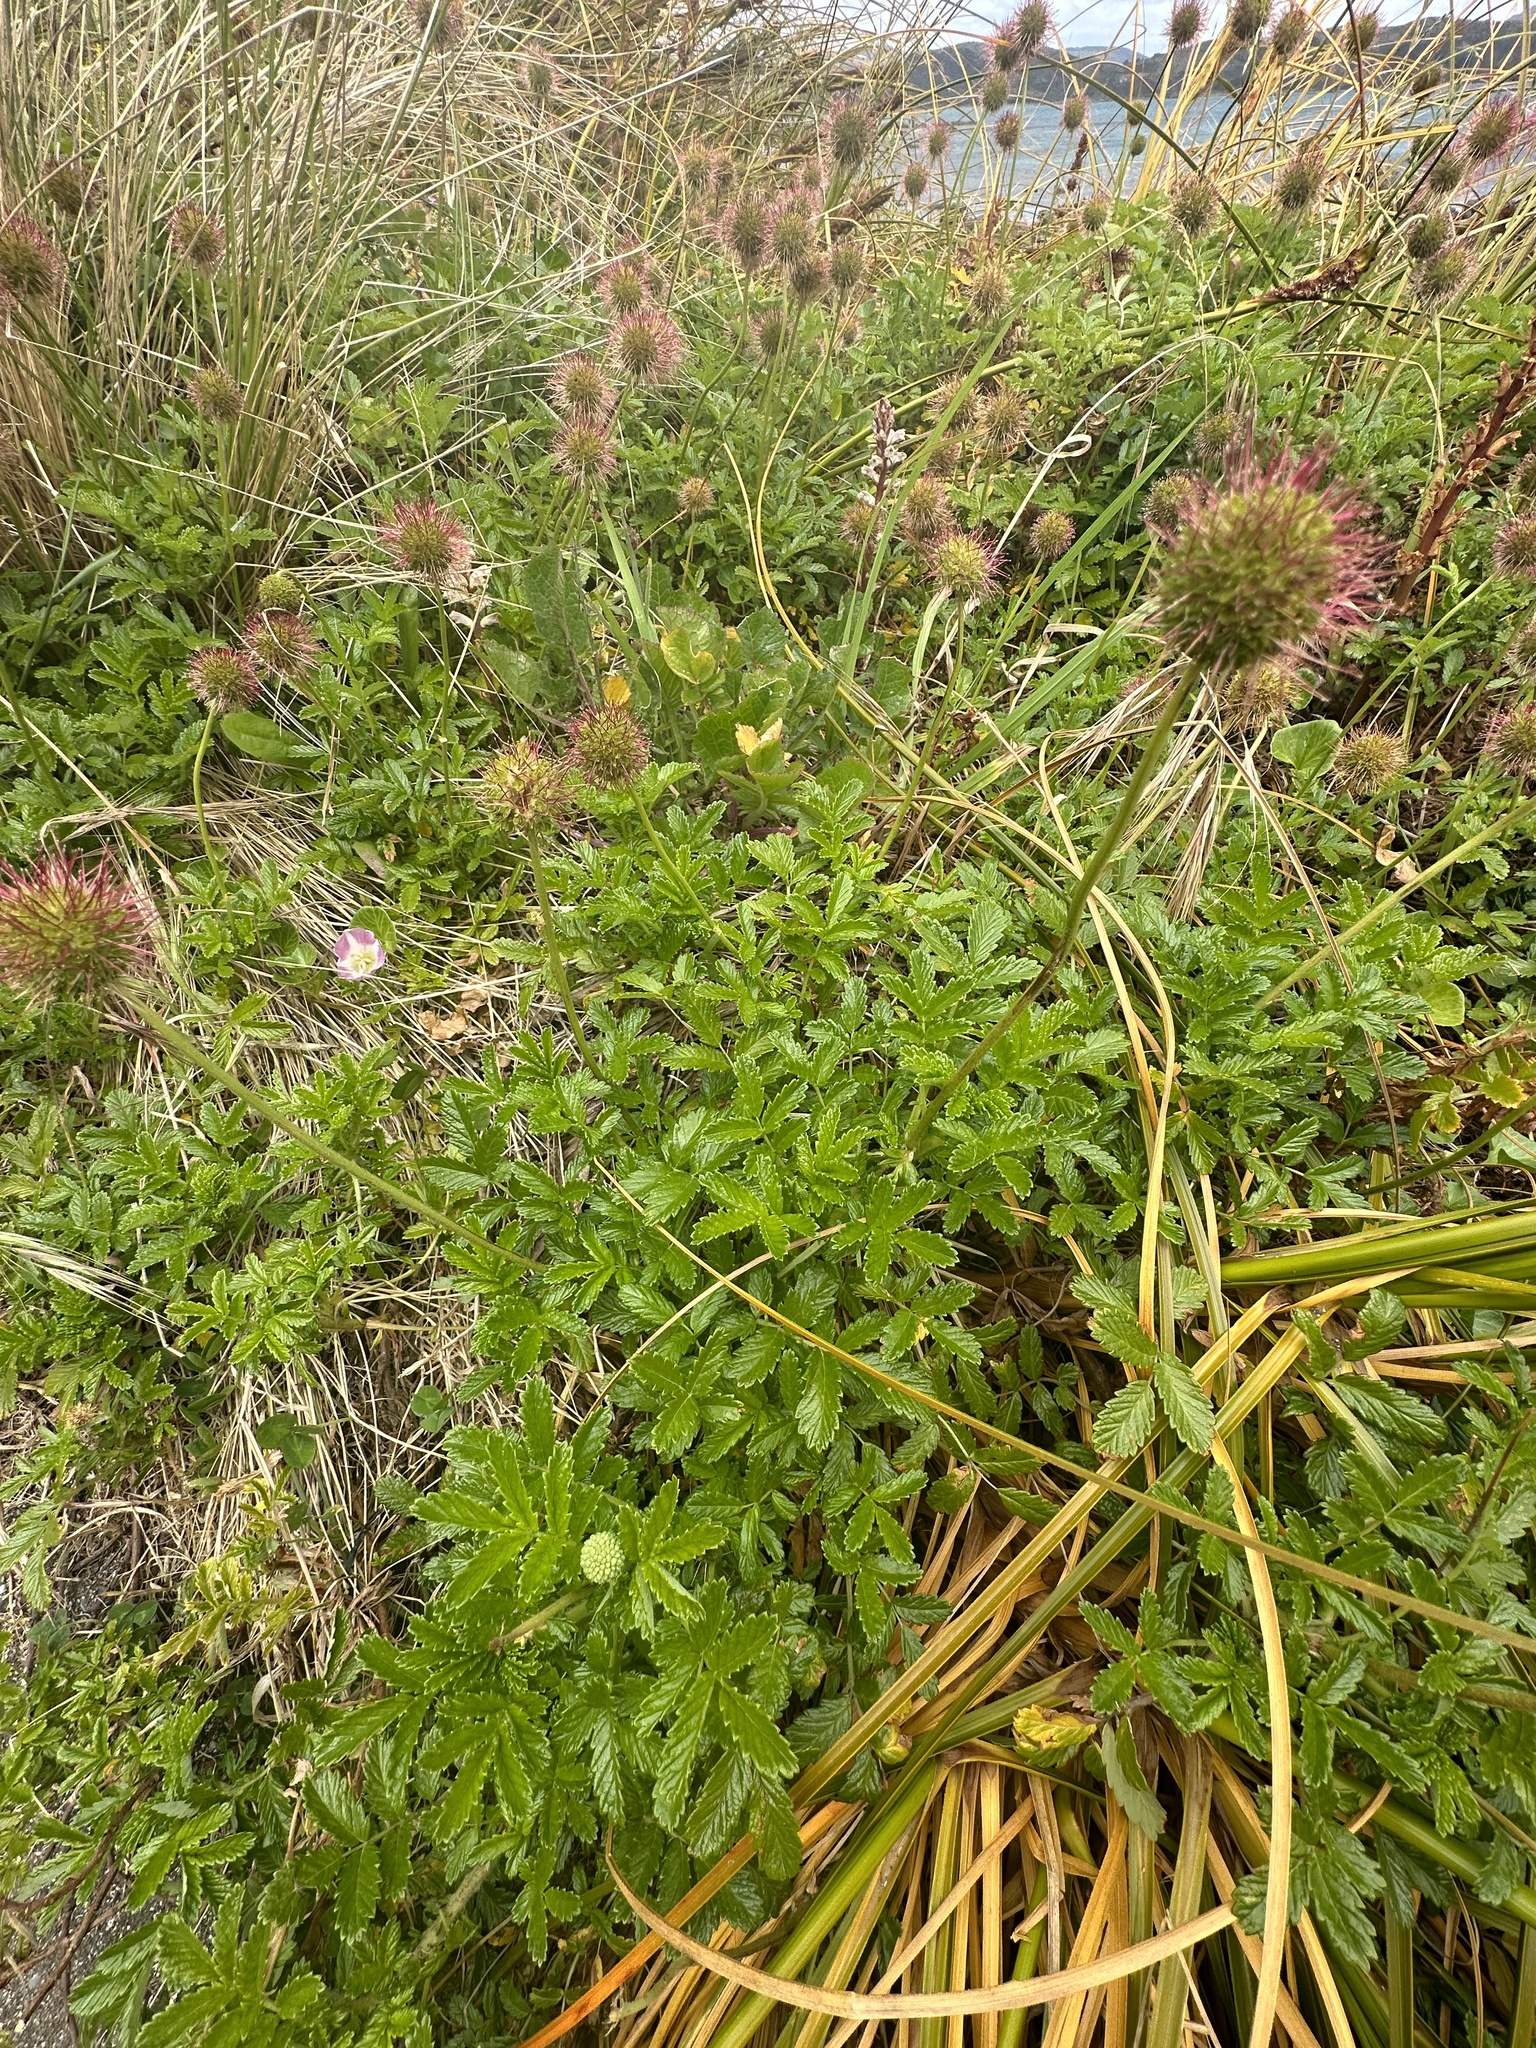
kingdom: Plantae
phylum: Tracheophyta
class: Magnoliopsida
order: Rosales
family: Rosaceae
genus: Acaena
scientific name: Acaena pallida
